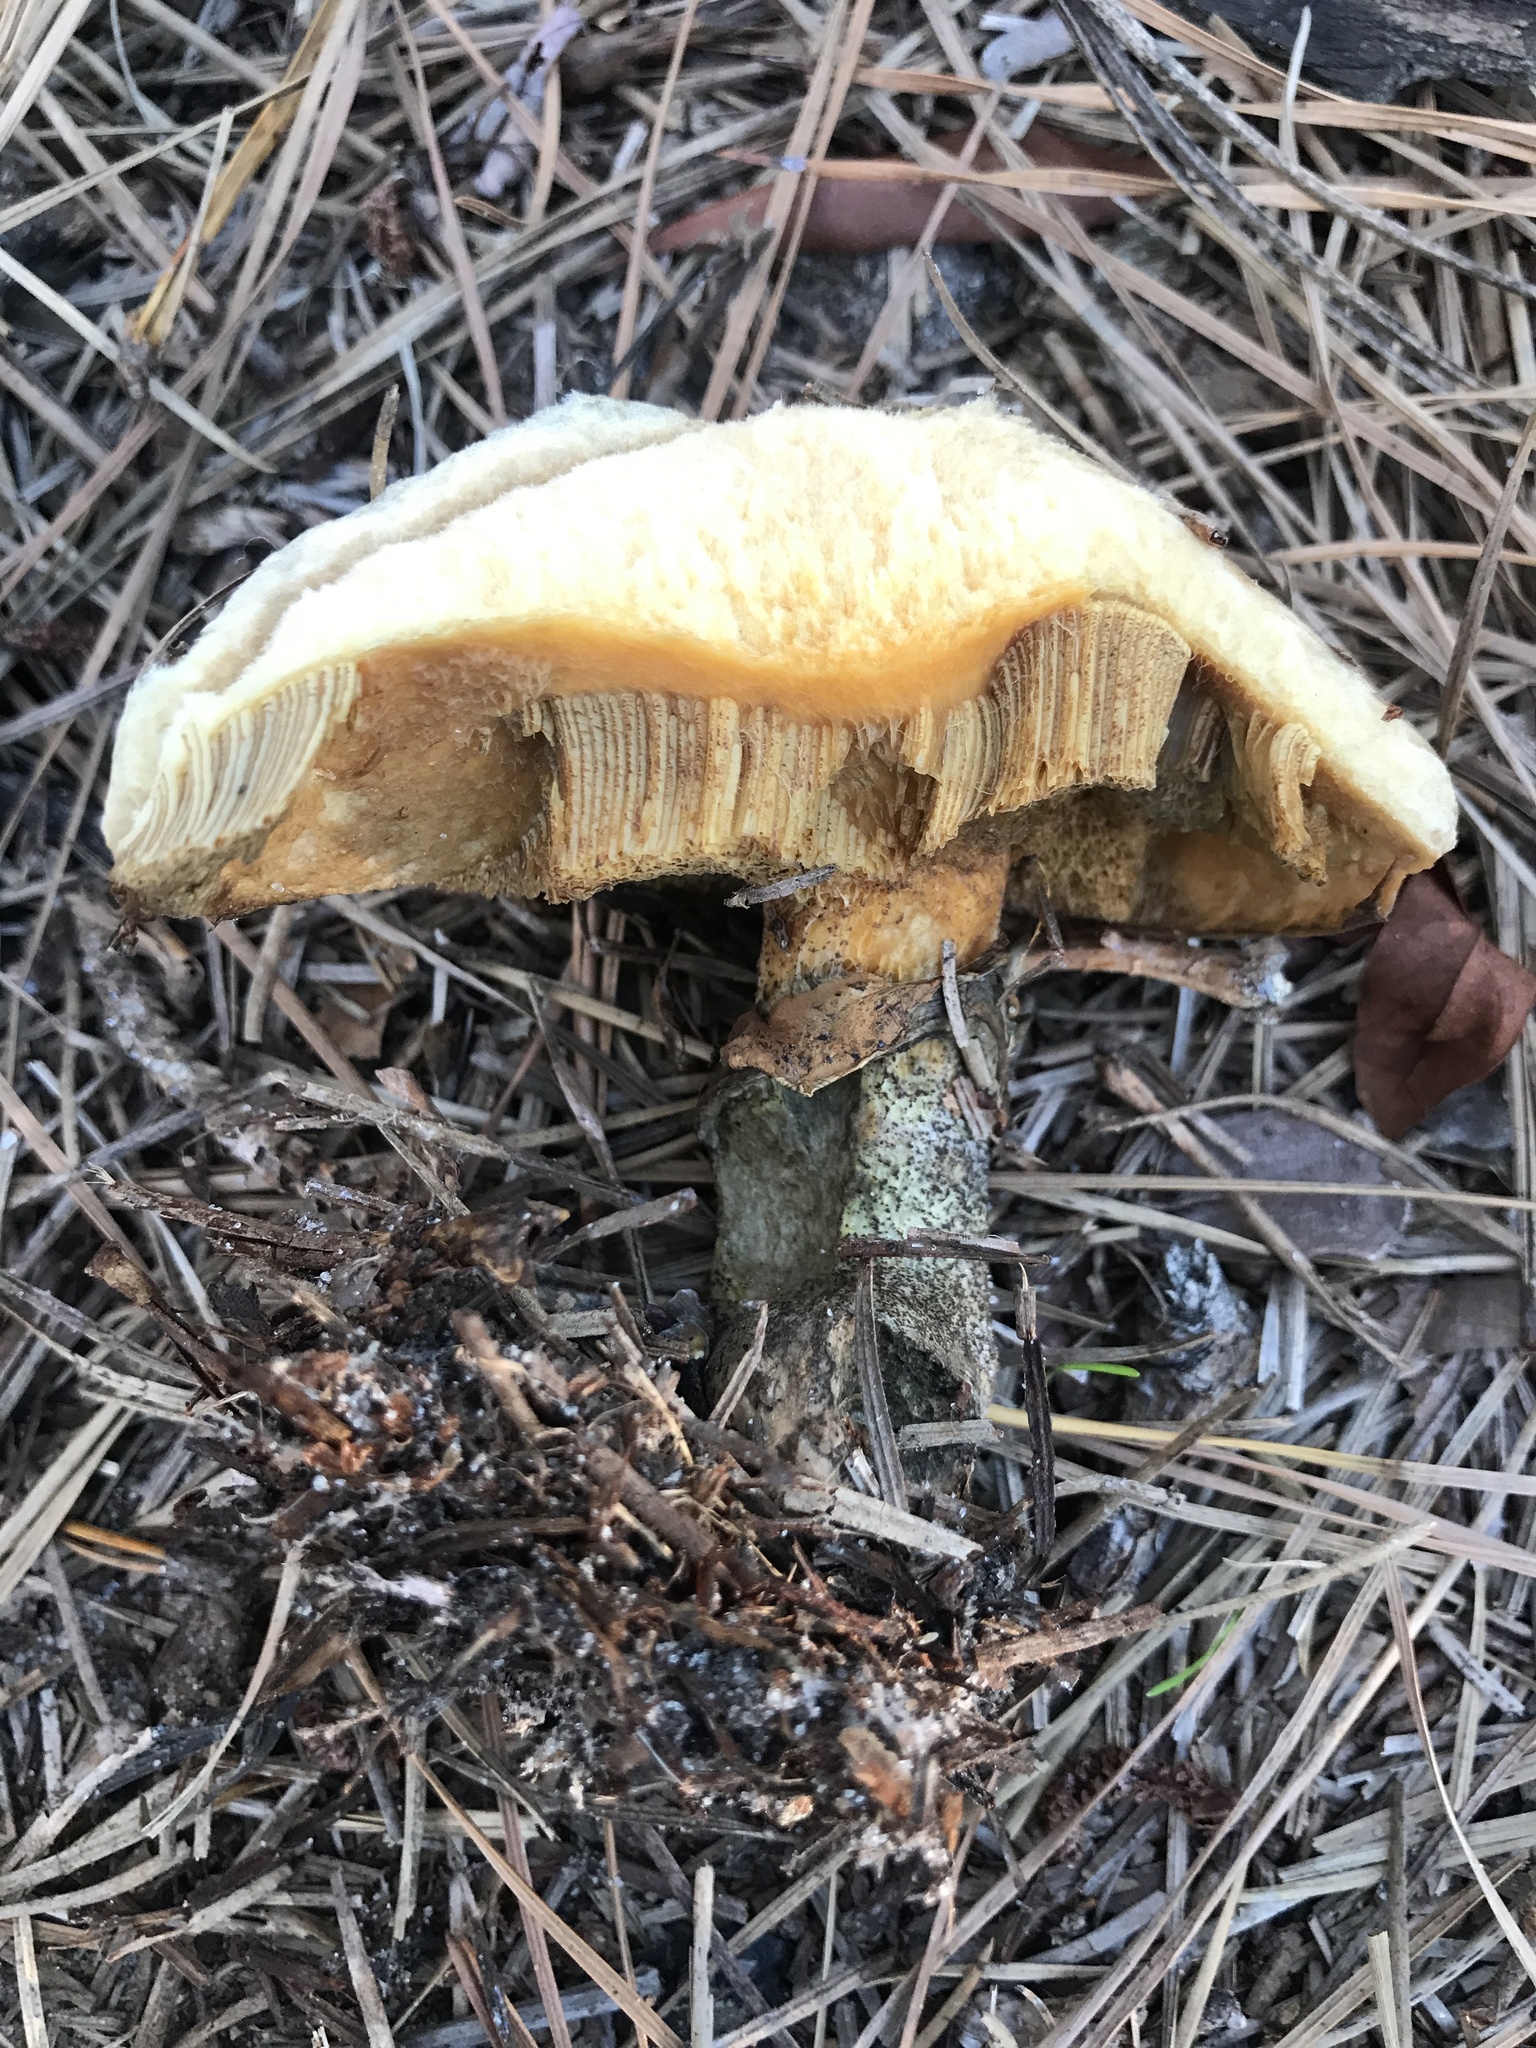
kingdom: Fungi
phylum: Basidiomycota
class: Agaricomycetes
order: Boletales
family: Suillaceae
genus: Suillus
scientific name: Suillus salmonicolor
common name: Slippery jill
